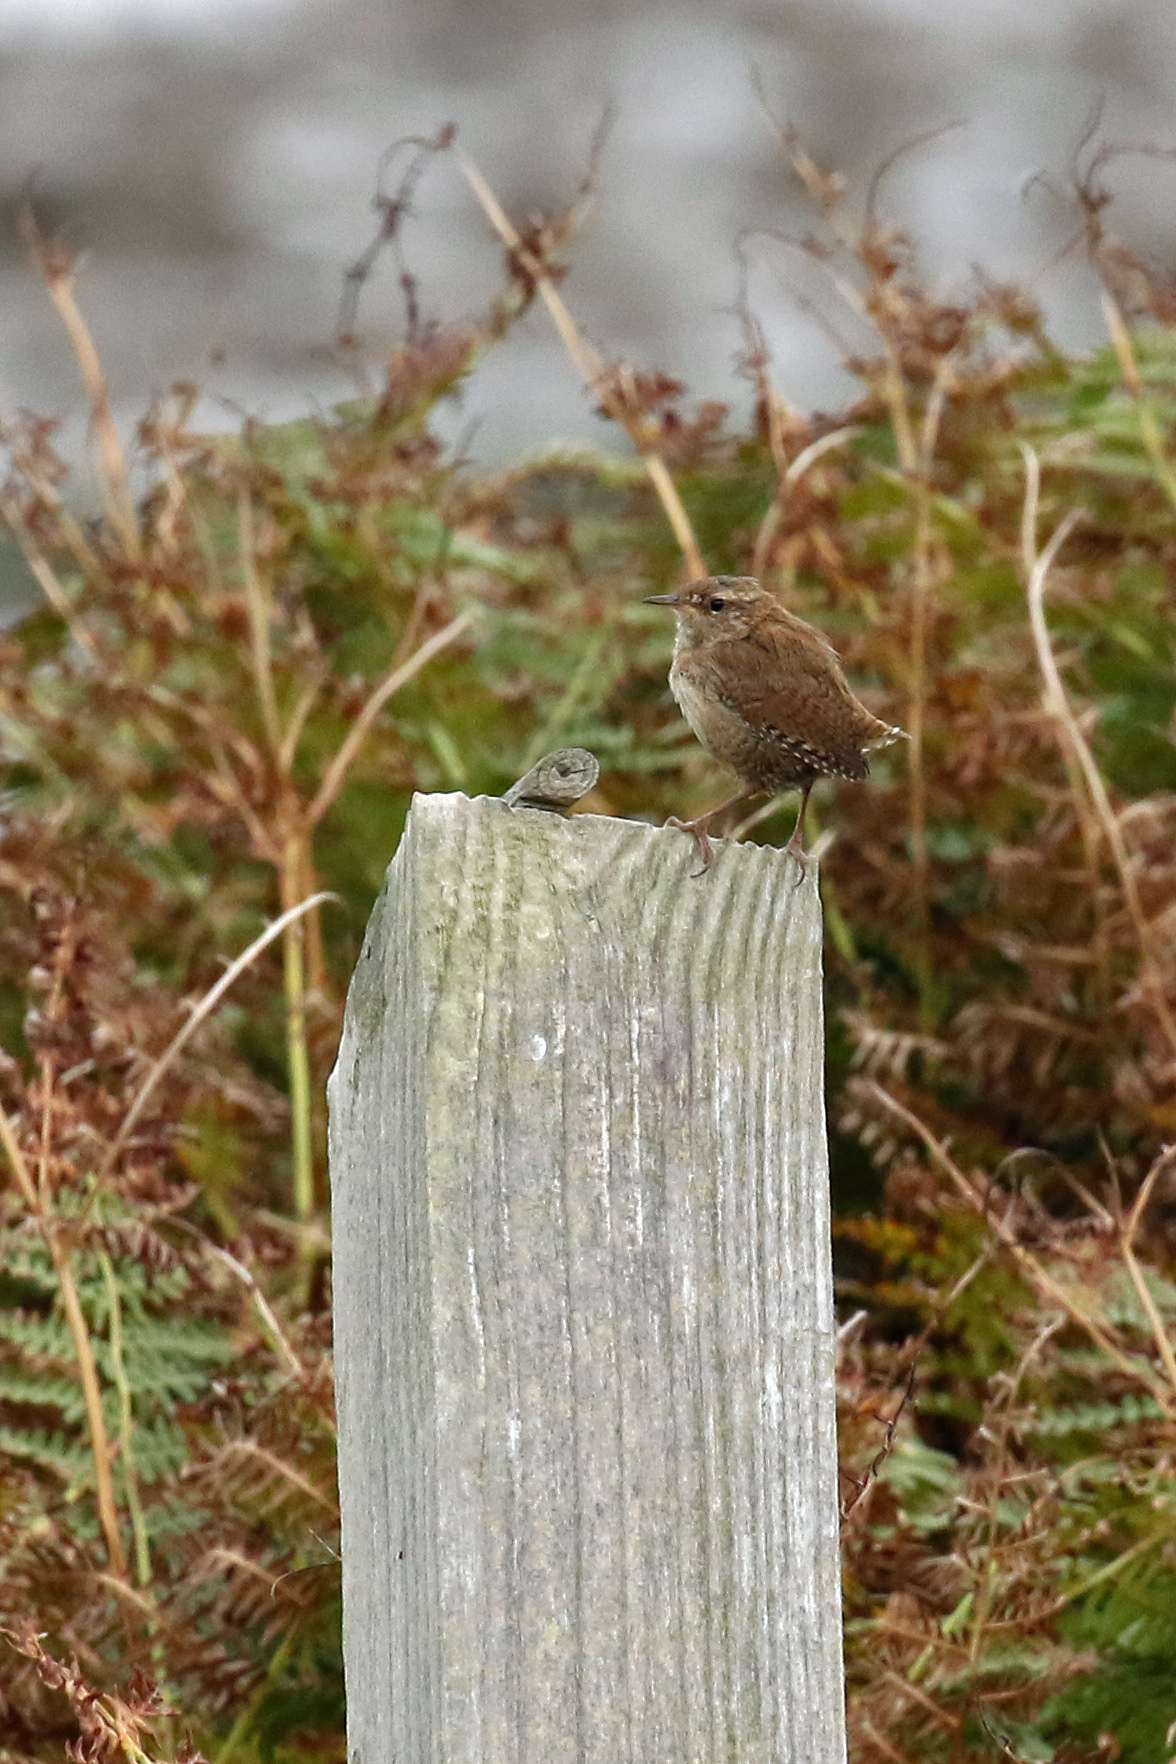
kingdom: Animalia
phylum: Chordata
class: Aves
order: Passeriformes
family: Troglodytidae
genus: Troglodytes
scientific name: Troglodytes troglodytes
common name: Eurasian wren
